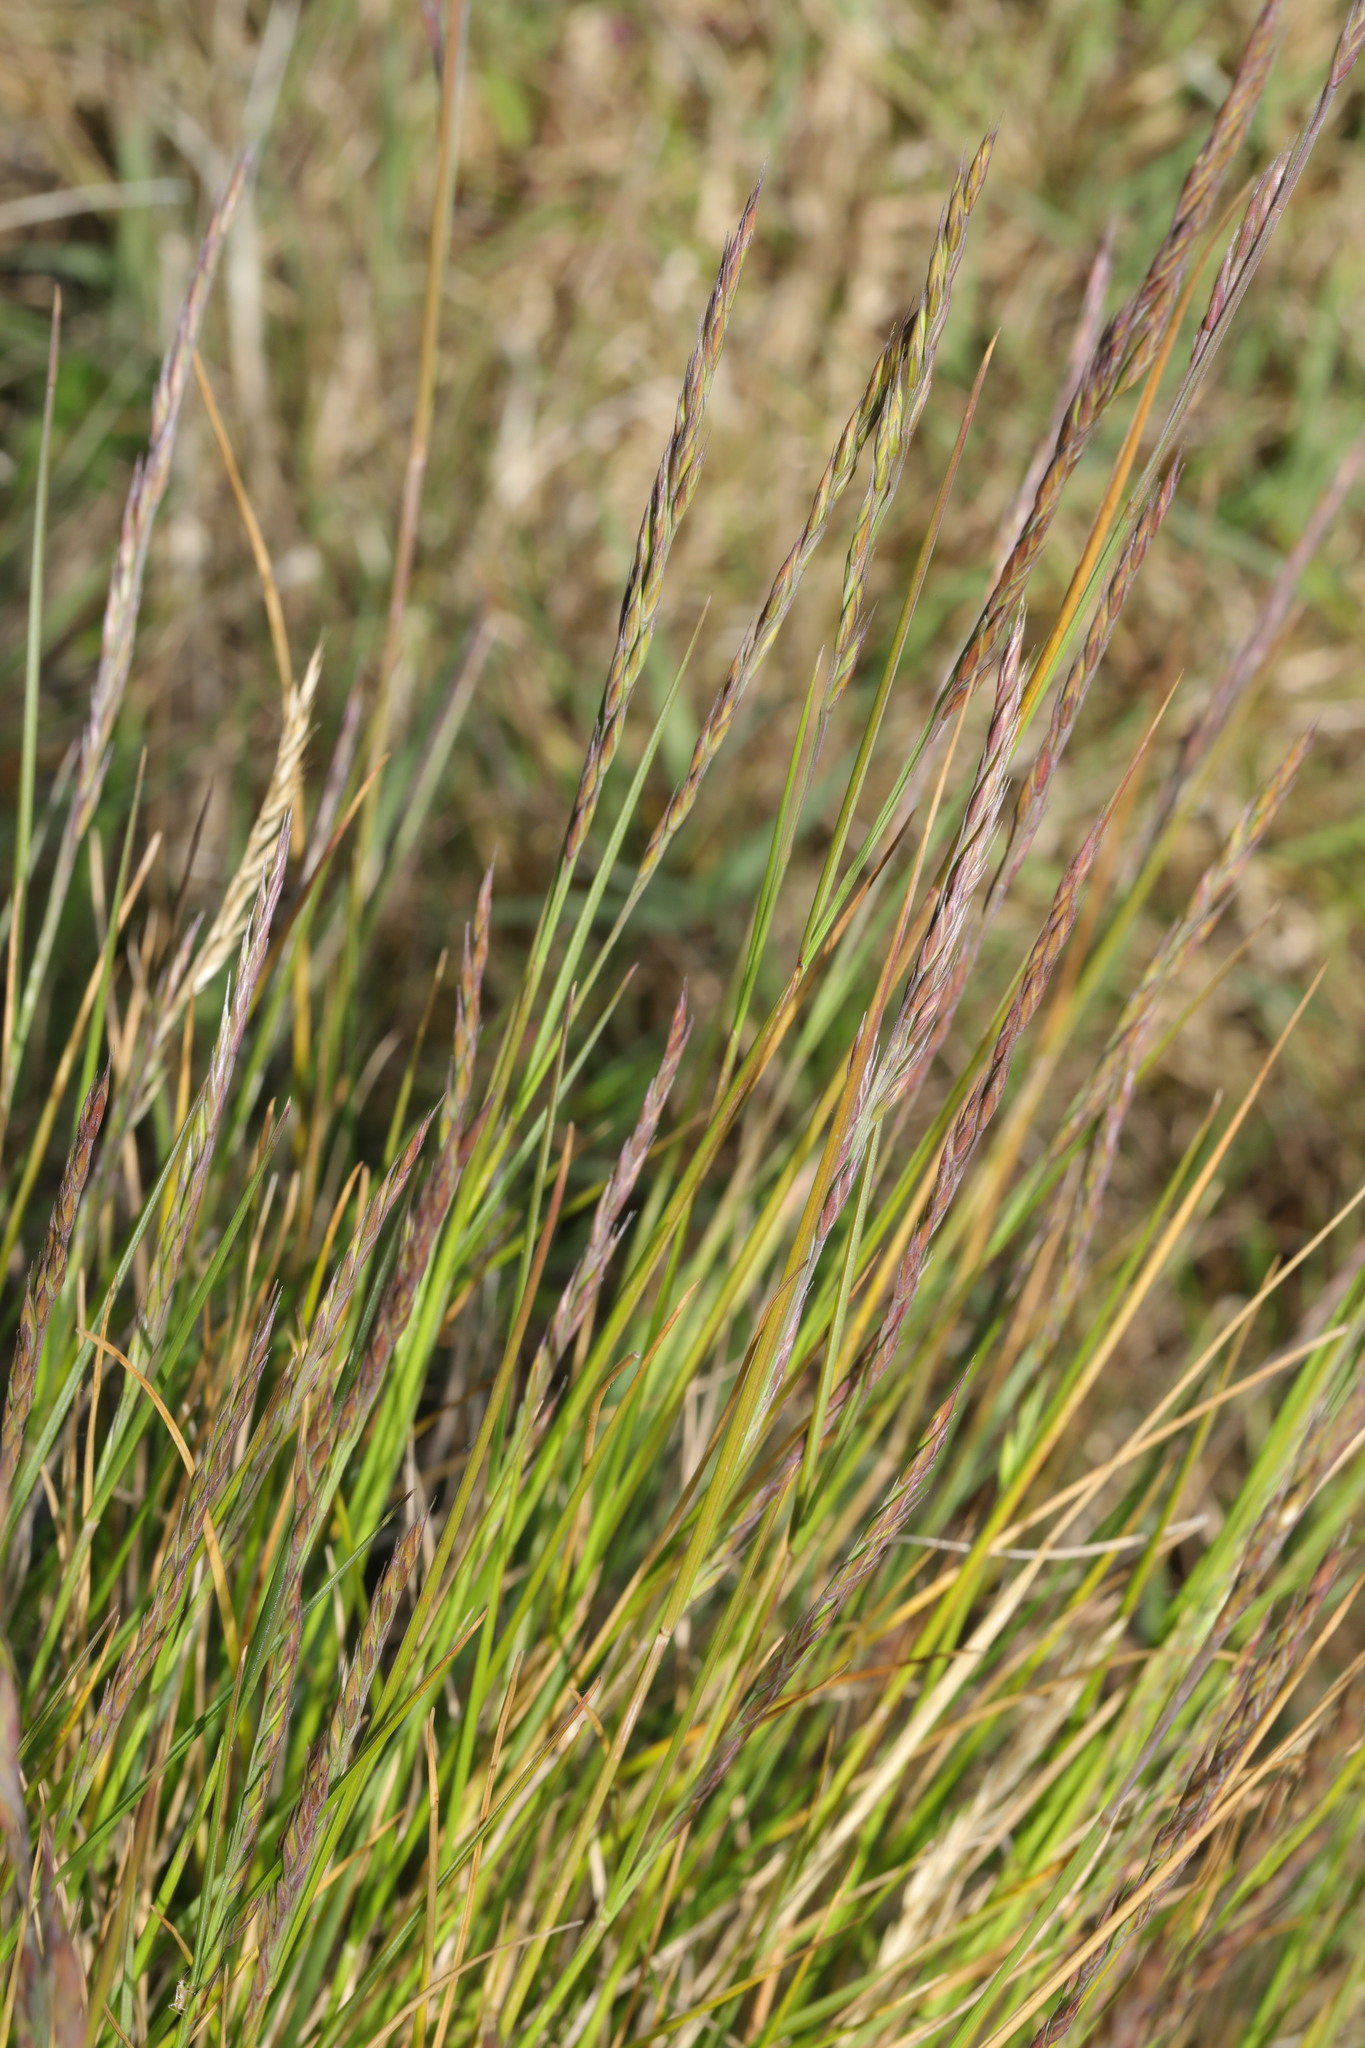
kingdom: Plantae
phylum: Tracheophyta
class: Liliopsida
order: Poales
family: Poaceae
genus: Festuca
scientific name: Festuca rubra
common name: Red fescue
